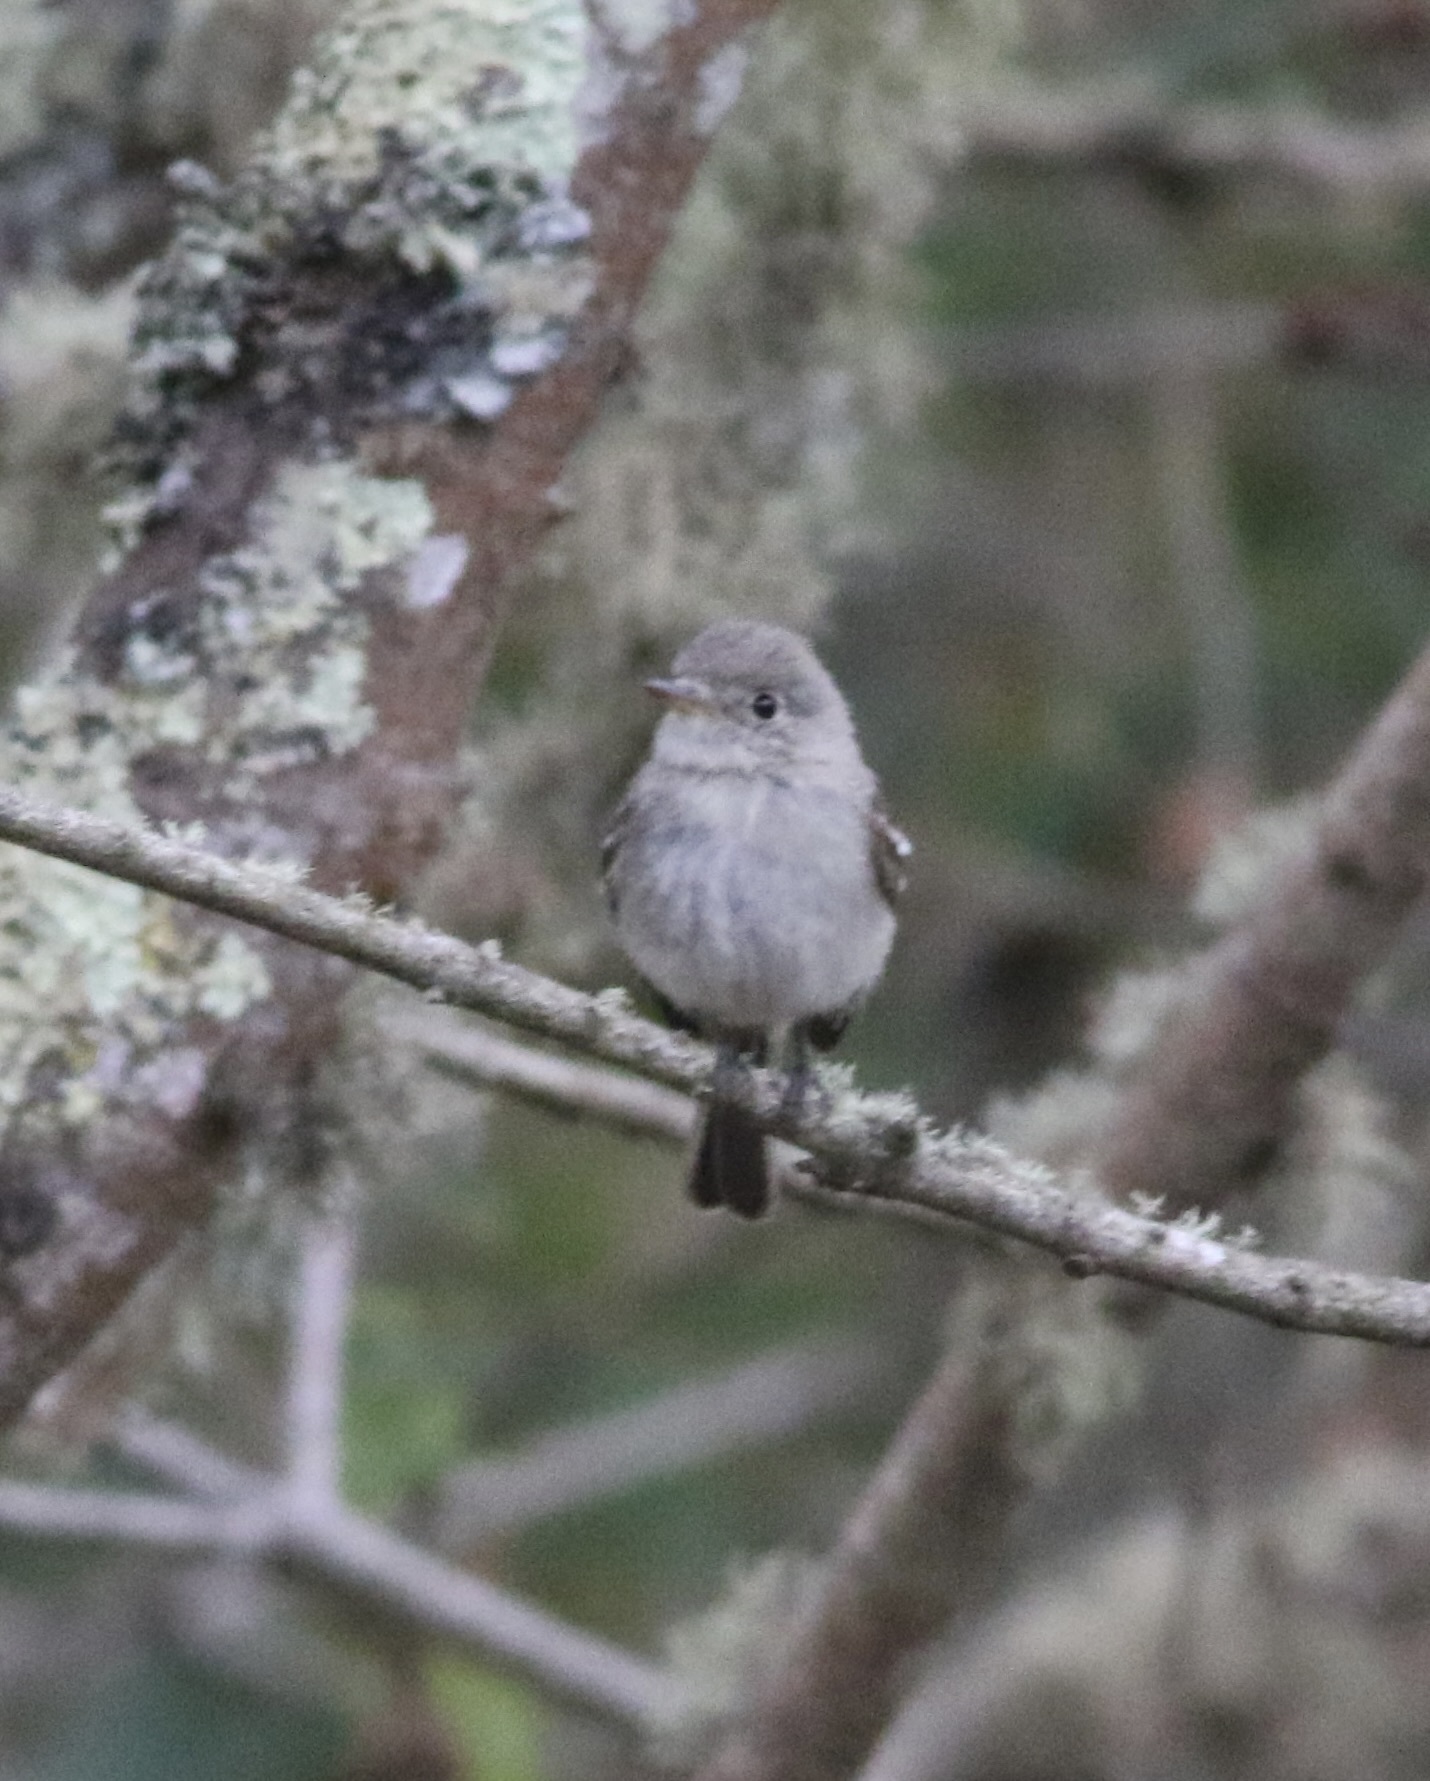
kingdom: Animalia
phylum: Chordata
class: Aves
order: Passeriformes
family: Tyrannidae
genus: Empidonax
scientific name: Empidonax wrightii
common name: Gray flycatcher
